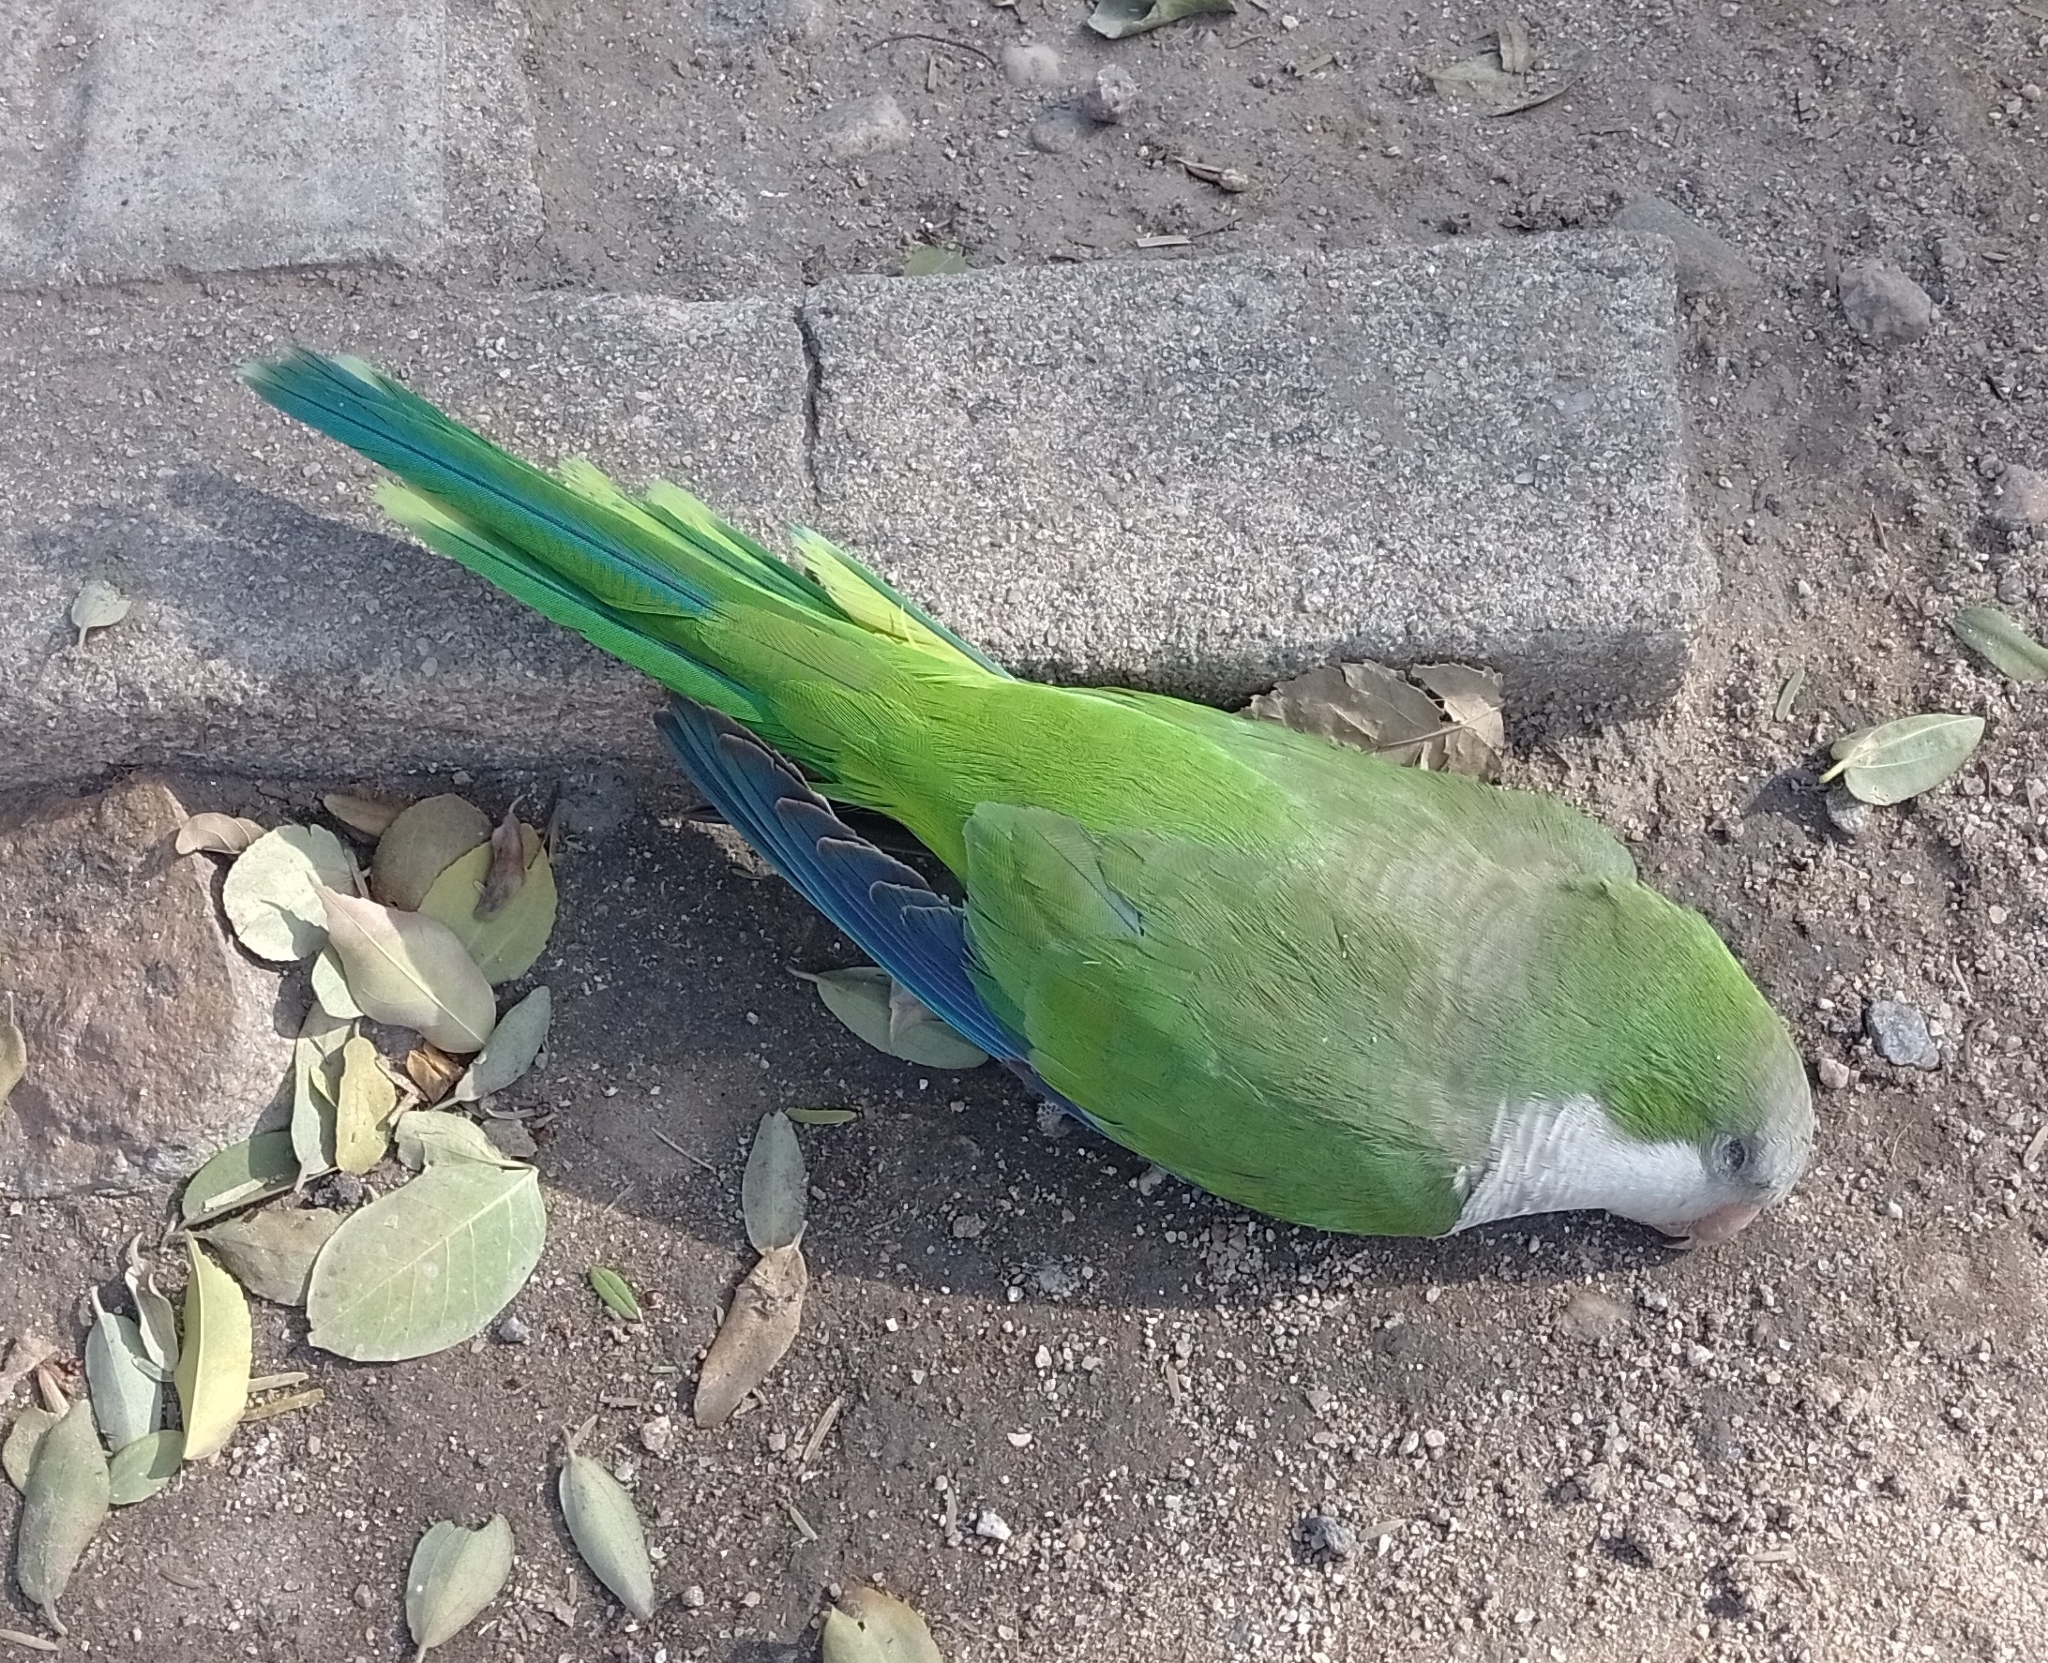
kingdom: Animalia
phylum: Chordata
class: Aves
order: Psittaciformes
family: Psittacidae
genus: Myiopsitta
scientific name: Myiopsitta monachus
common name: Monk parakeet
